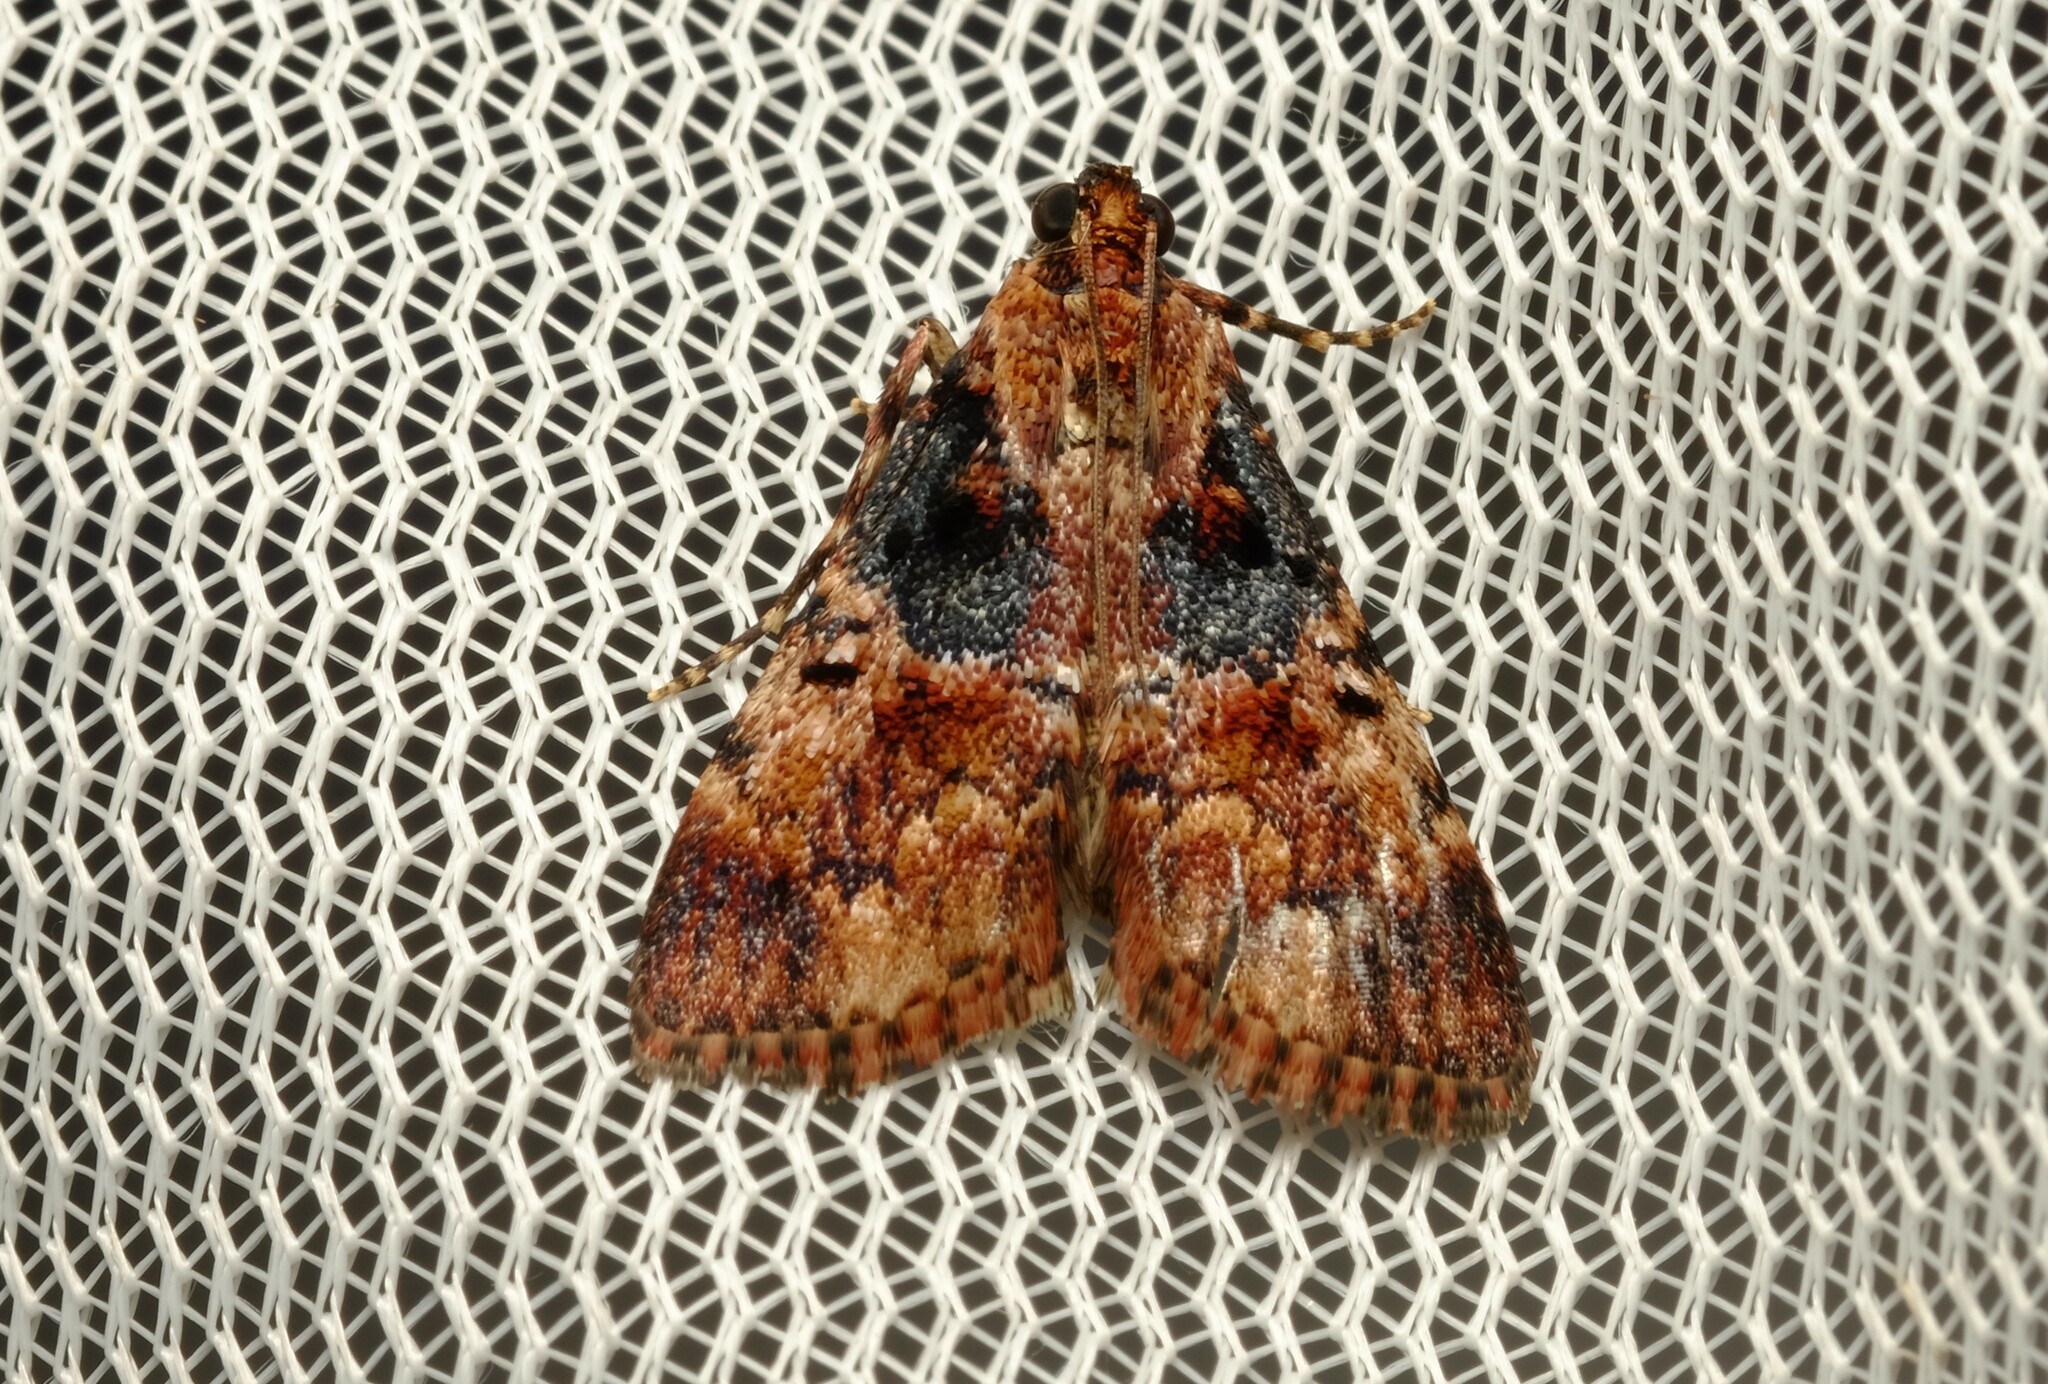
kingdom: Animalia
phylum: Arthropoda
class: Insecta
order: Lepidoptera
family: Pyralidae
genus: Orthaga
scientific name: Orthaga thyrisalis
